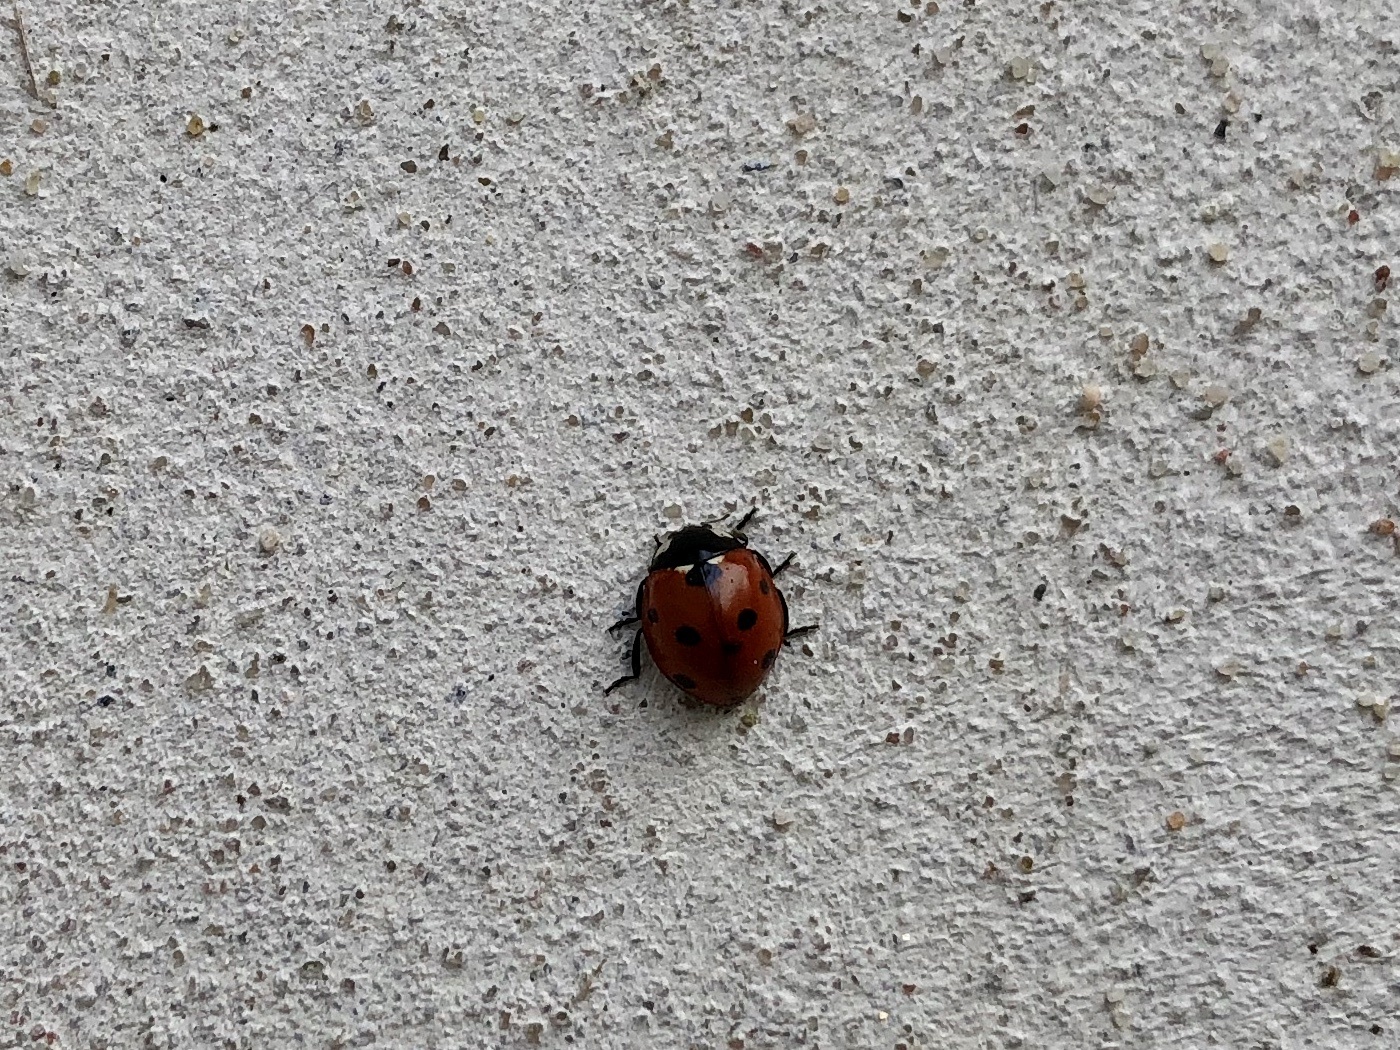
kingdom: Animalia
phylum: Arthropoda
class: Insecta
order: Coleoptera
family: Coccinellidae
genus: Coccinella
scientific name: Coccinella septempunctata
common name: Sevenspotted lady beetle
